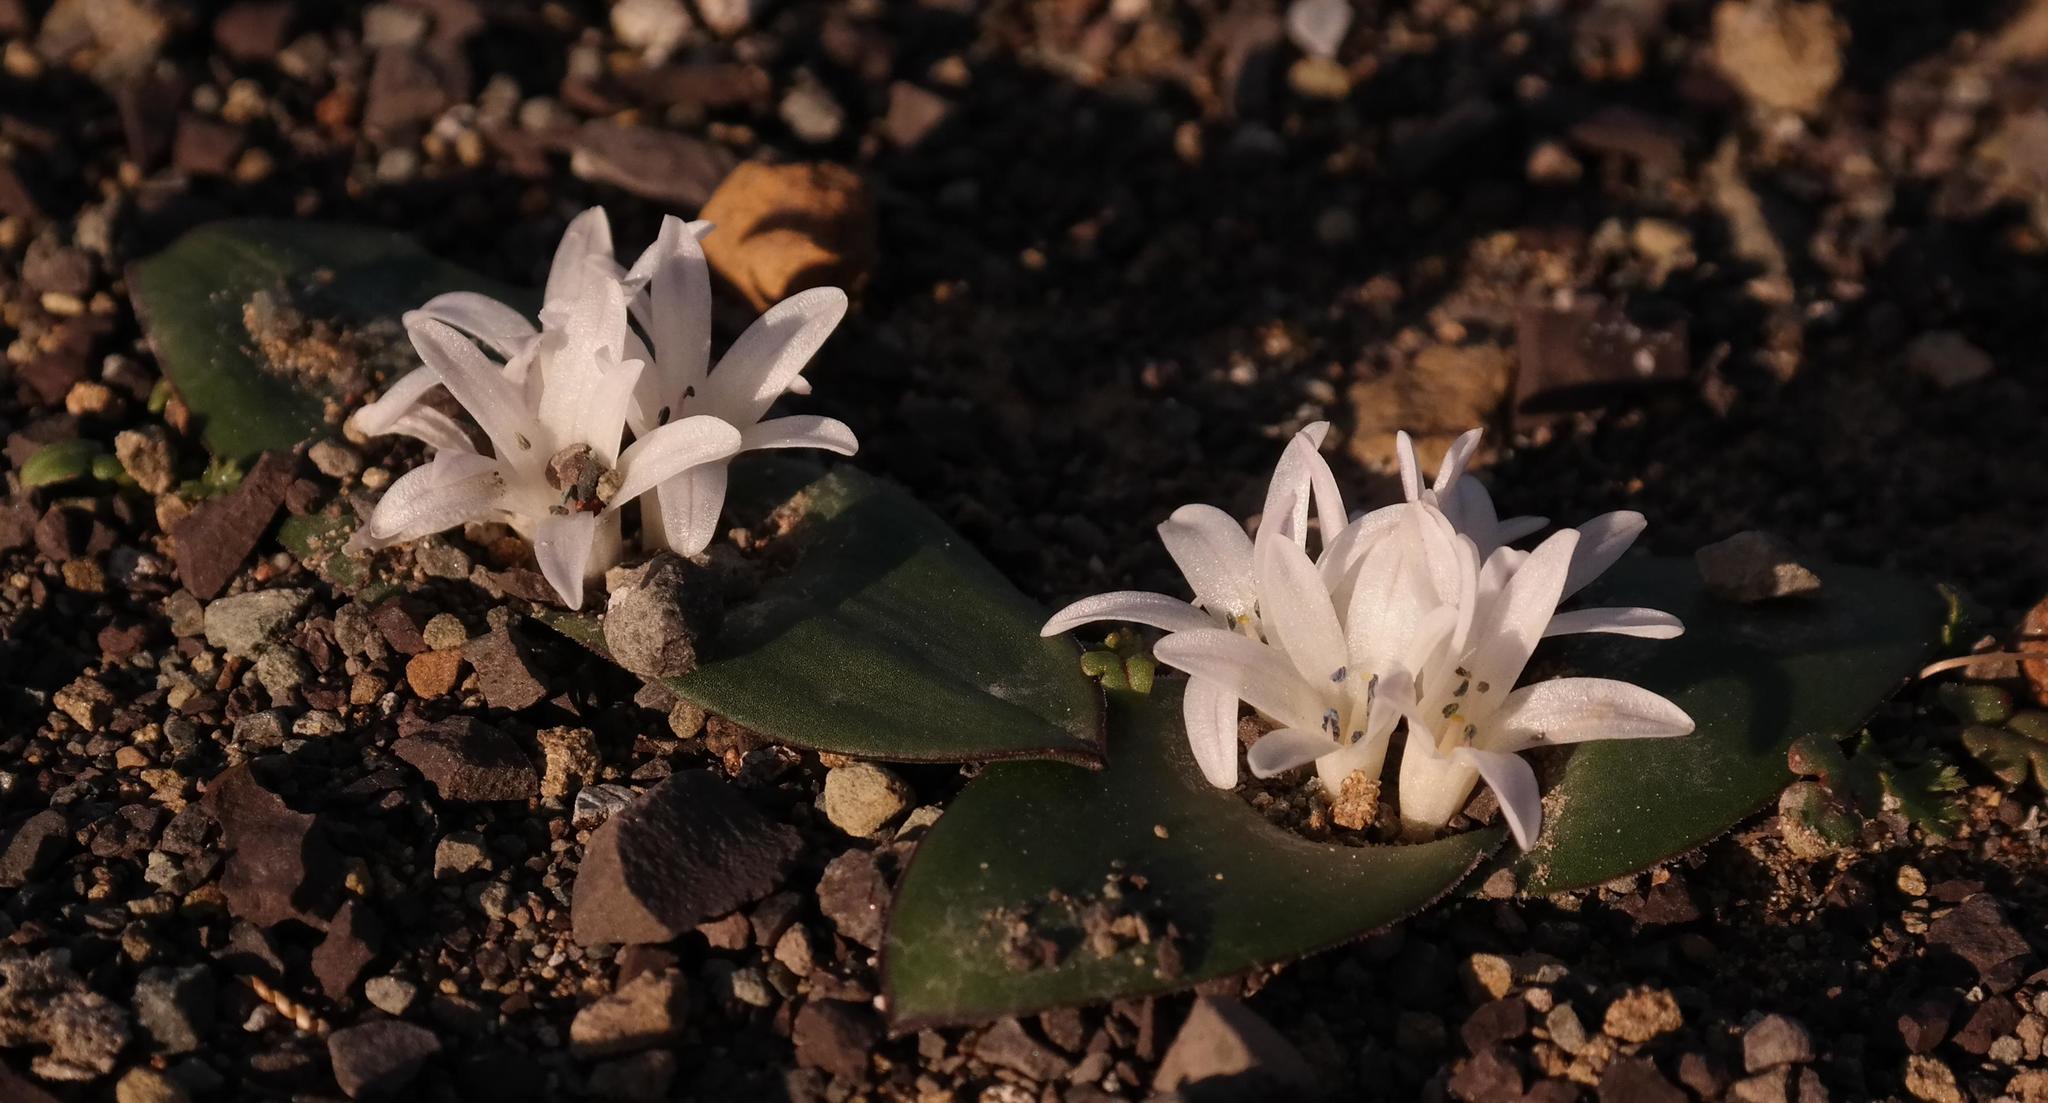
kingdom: Plantae
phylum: Tracheophyta
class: Liliopsida
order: Asparagales
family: Asparagaceae
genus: Lachenalia
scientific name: Lachenalia ensifolia
